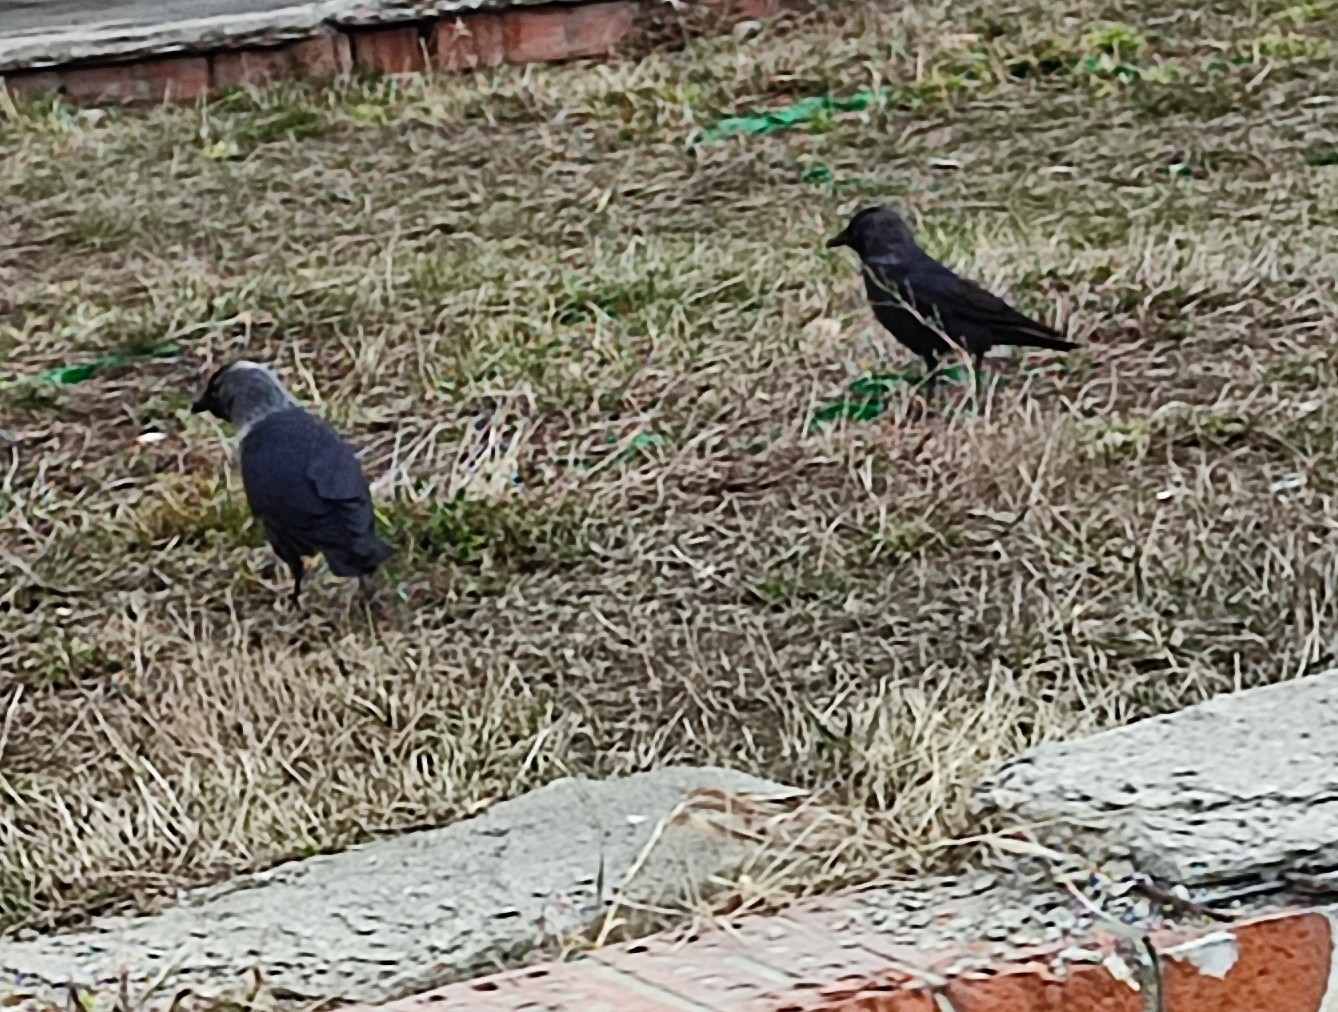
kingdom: Animalia
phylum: Chordata
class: Aves
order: Passeriformes
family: Corvidae
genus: Coloeus
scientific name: Coloeus monedula
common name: Western jackdaw
